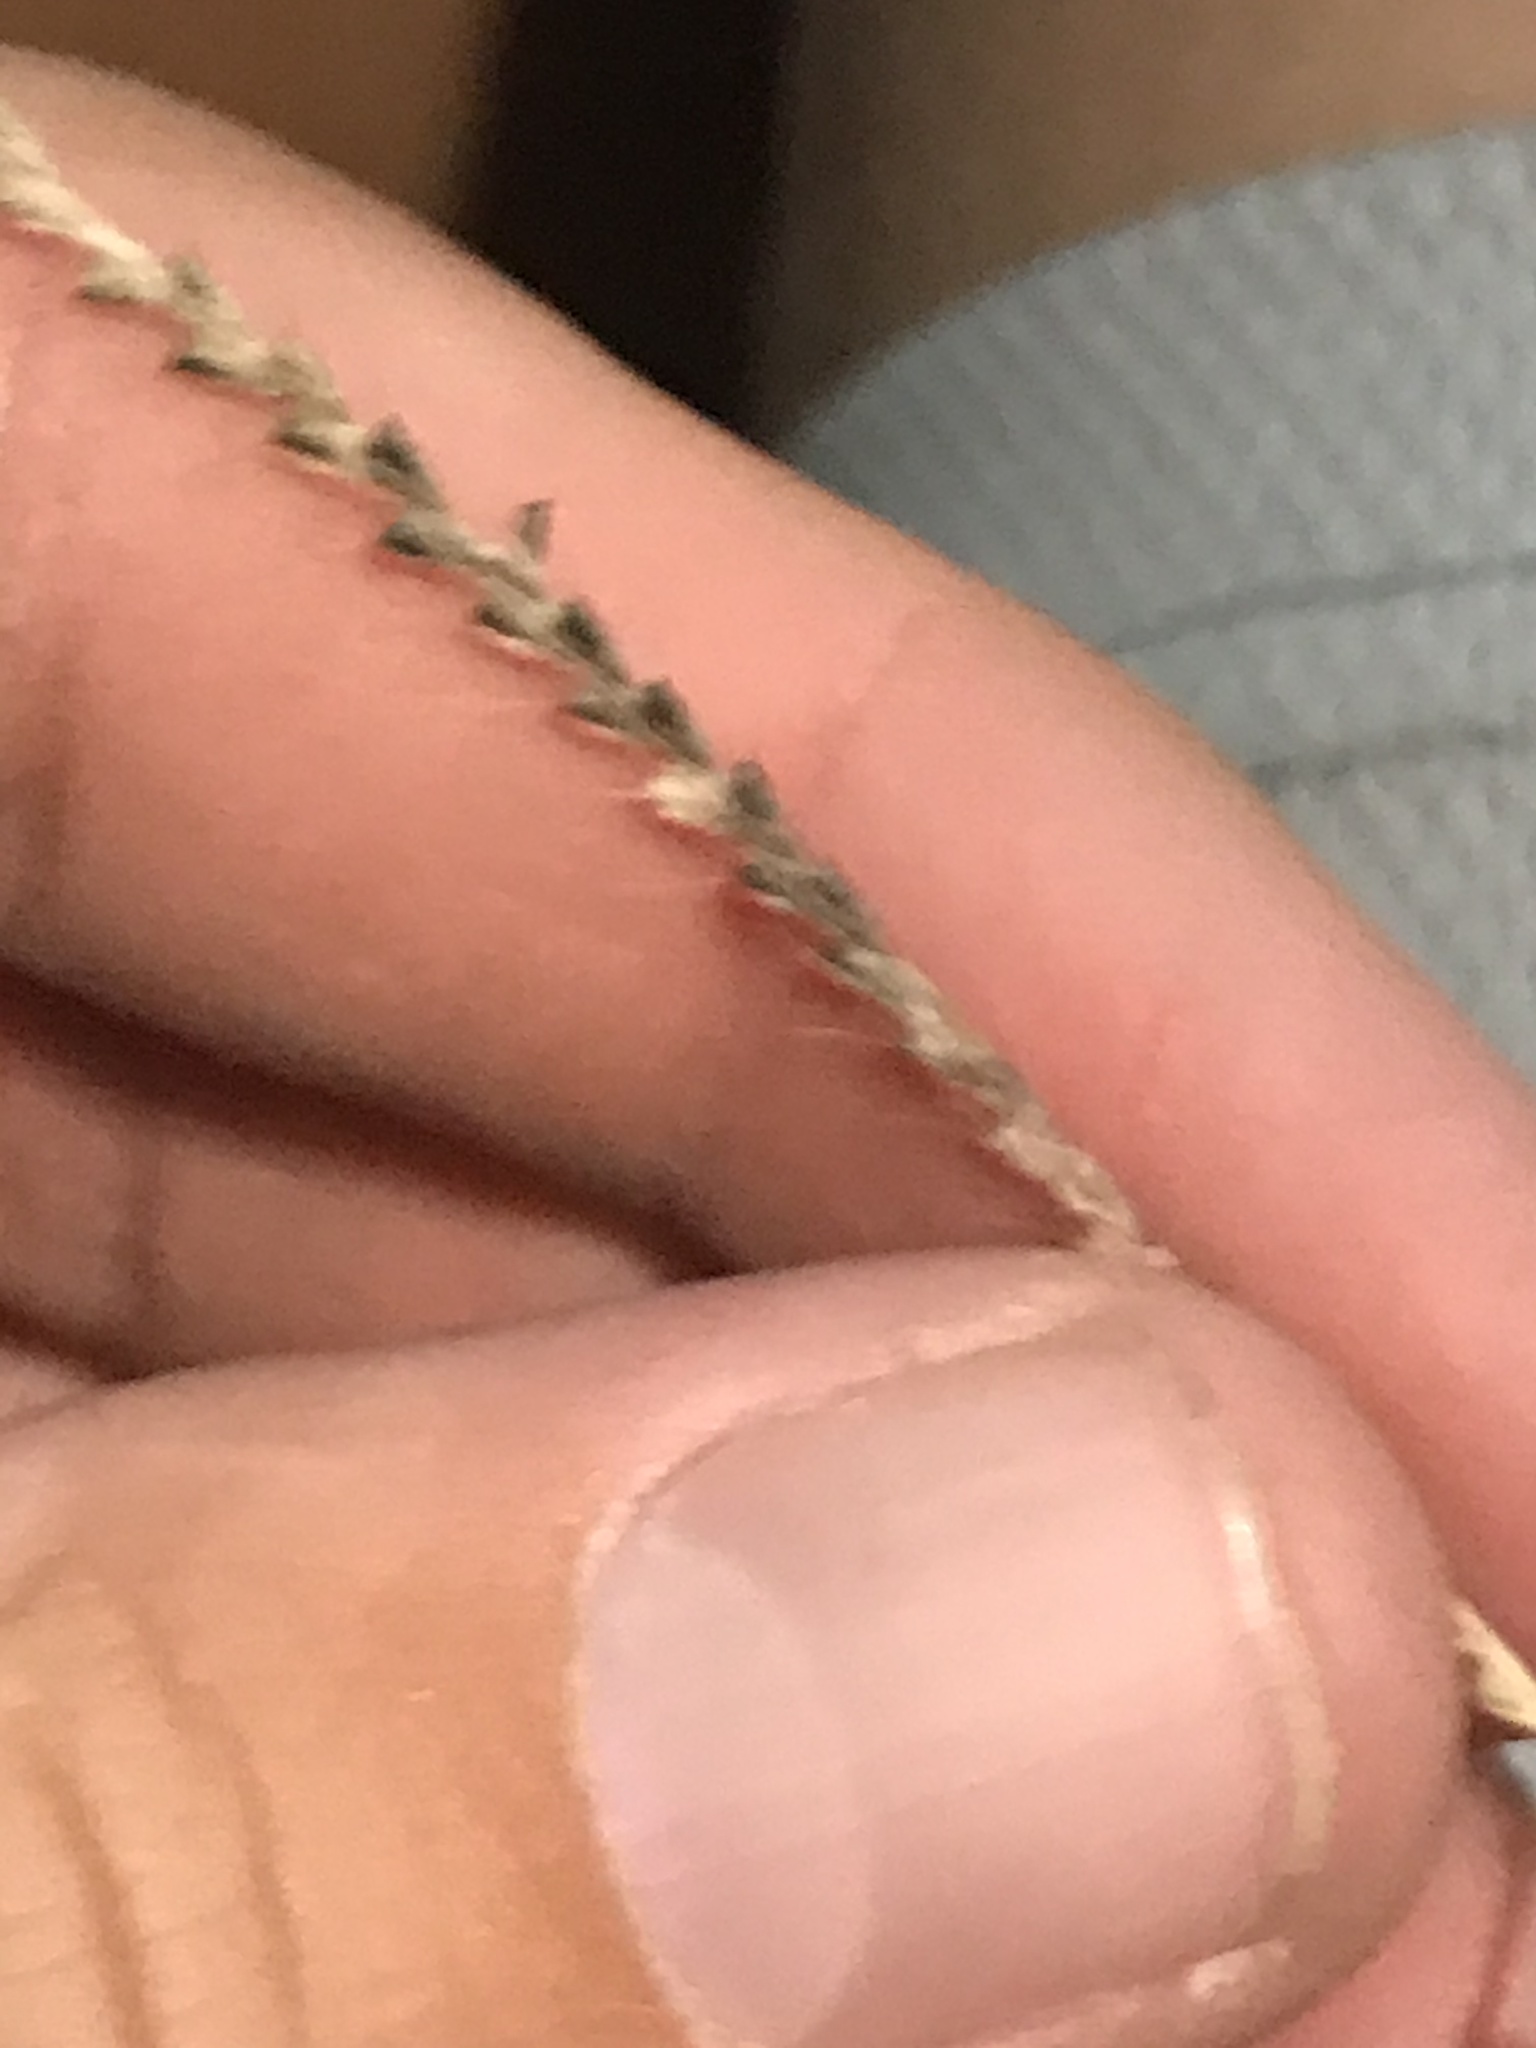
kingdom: Plantae
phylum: Tracheophyta
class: Liliopsida
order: Poales
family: Poaceae
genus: Chloris
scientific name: Chloris verticillata
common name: Tumble windmill grass
